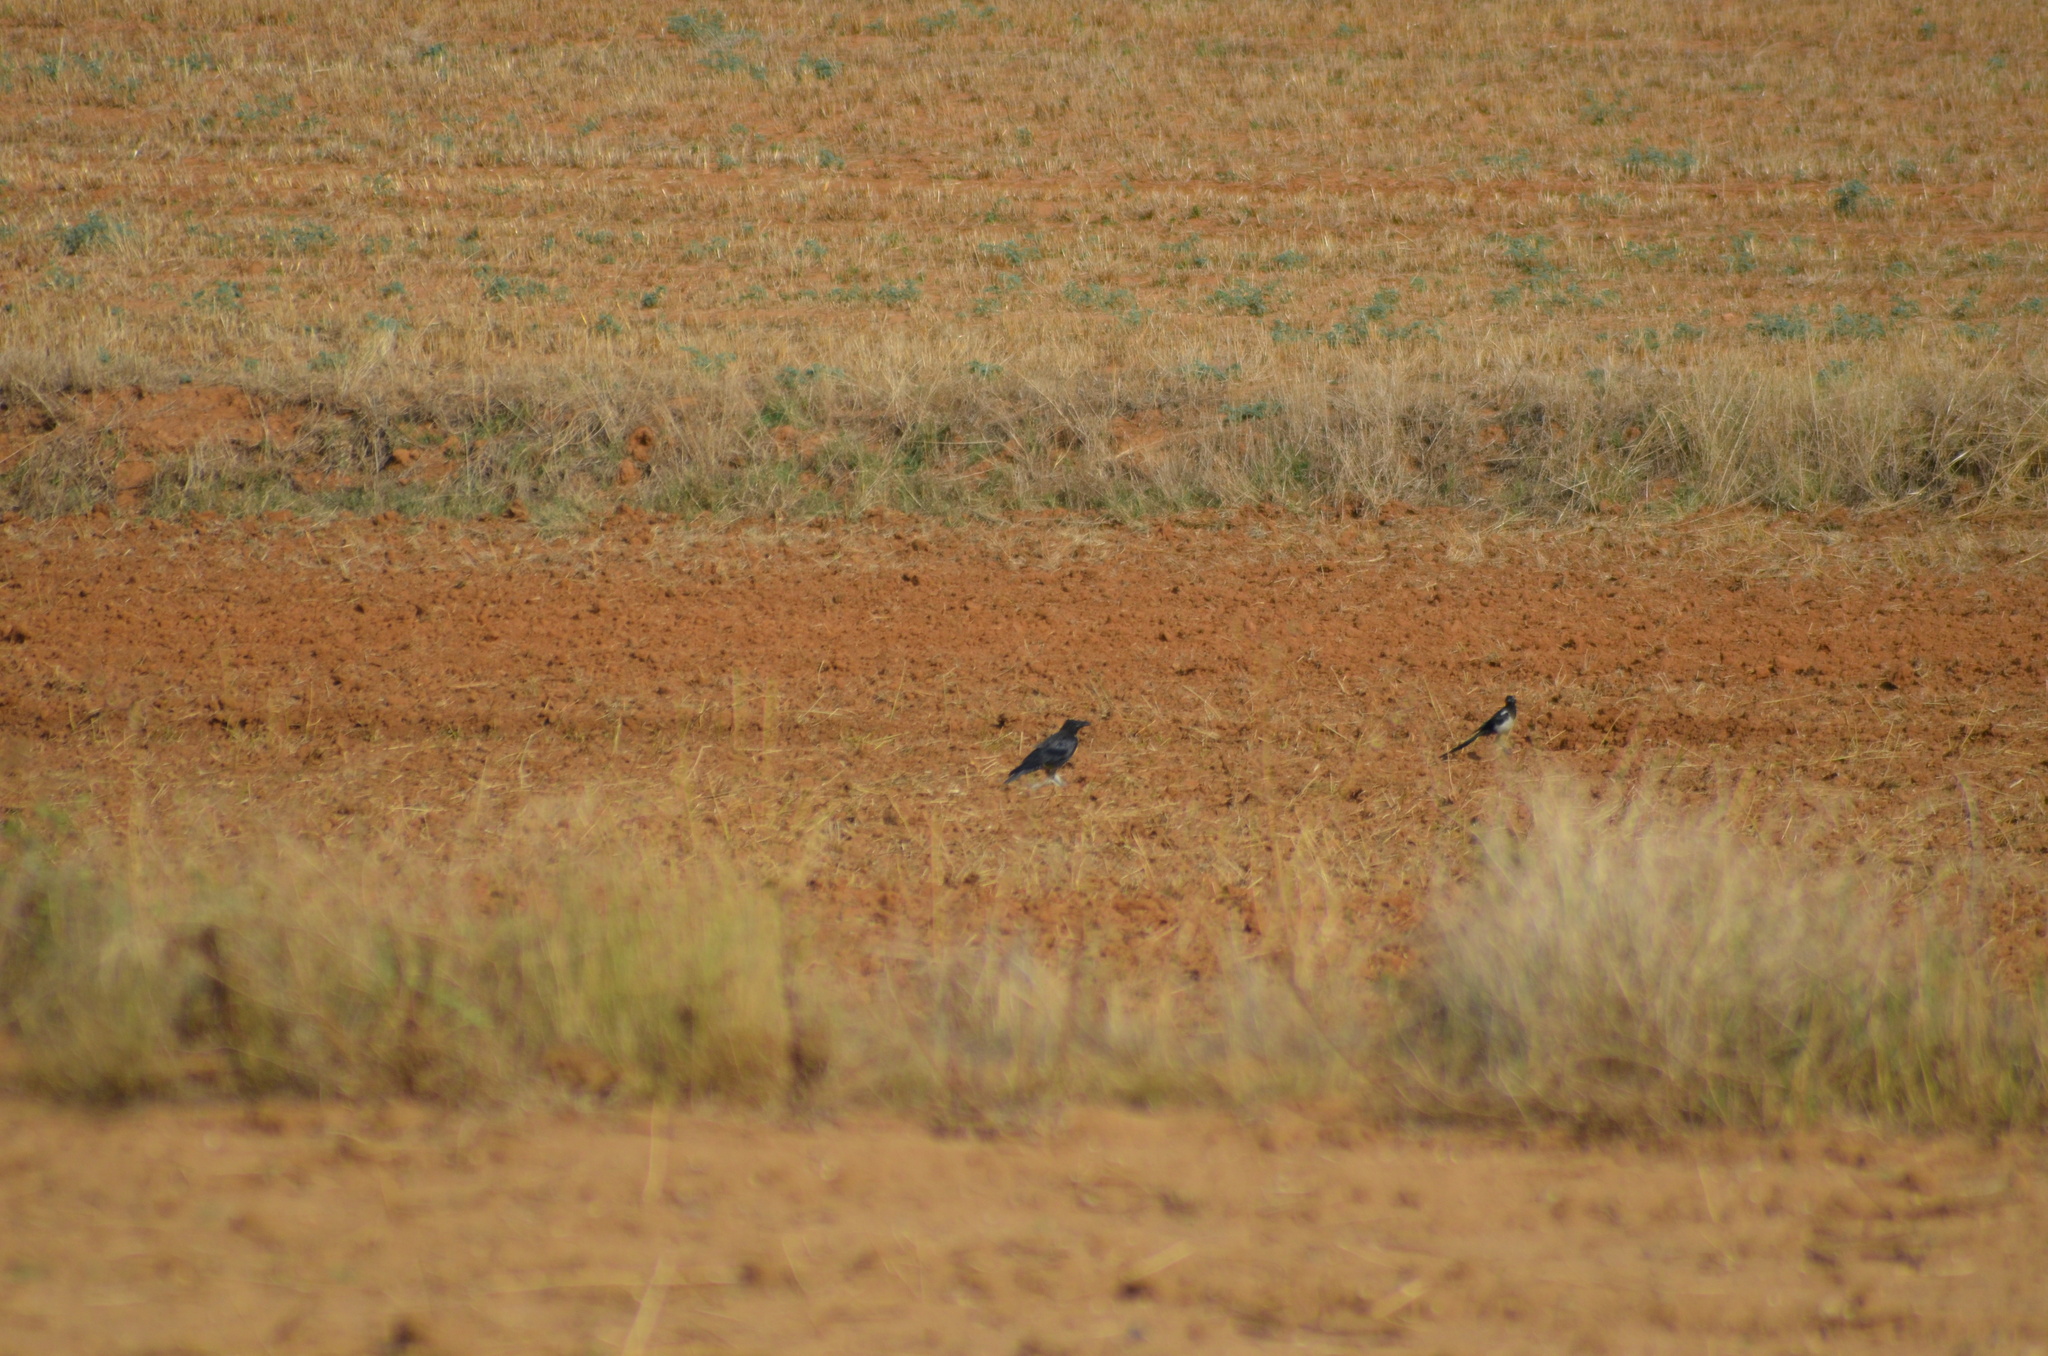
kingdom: Animalia
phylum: Chordata
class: Aves
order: Passeriformes
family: Corvidae
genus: Corvus
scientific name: Corvus corax
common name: Common raven
